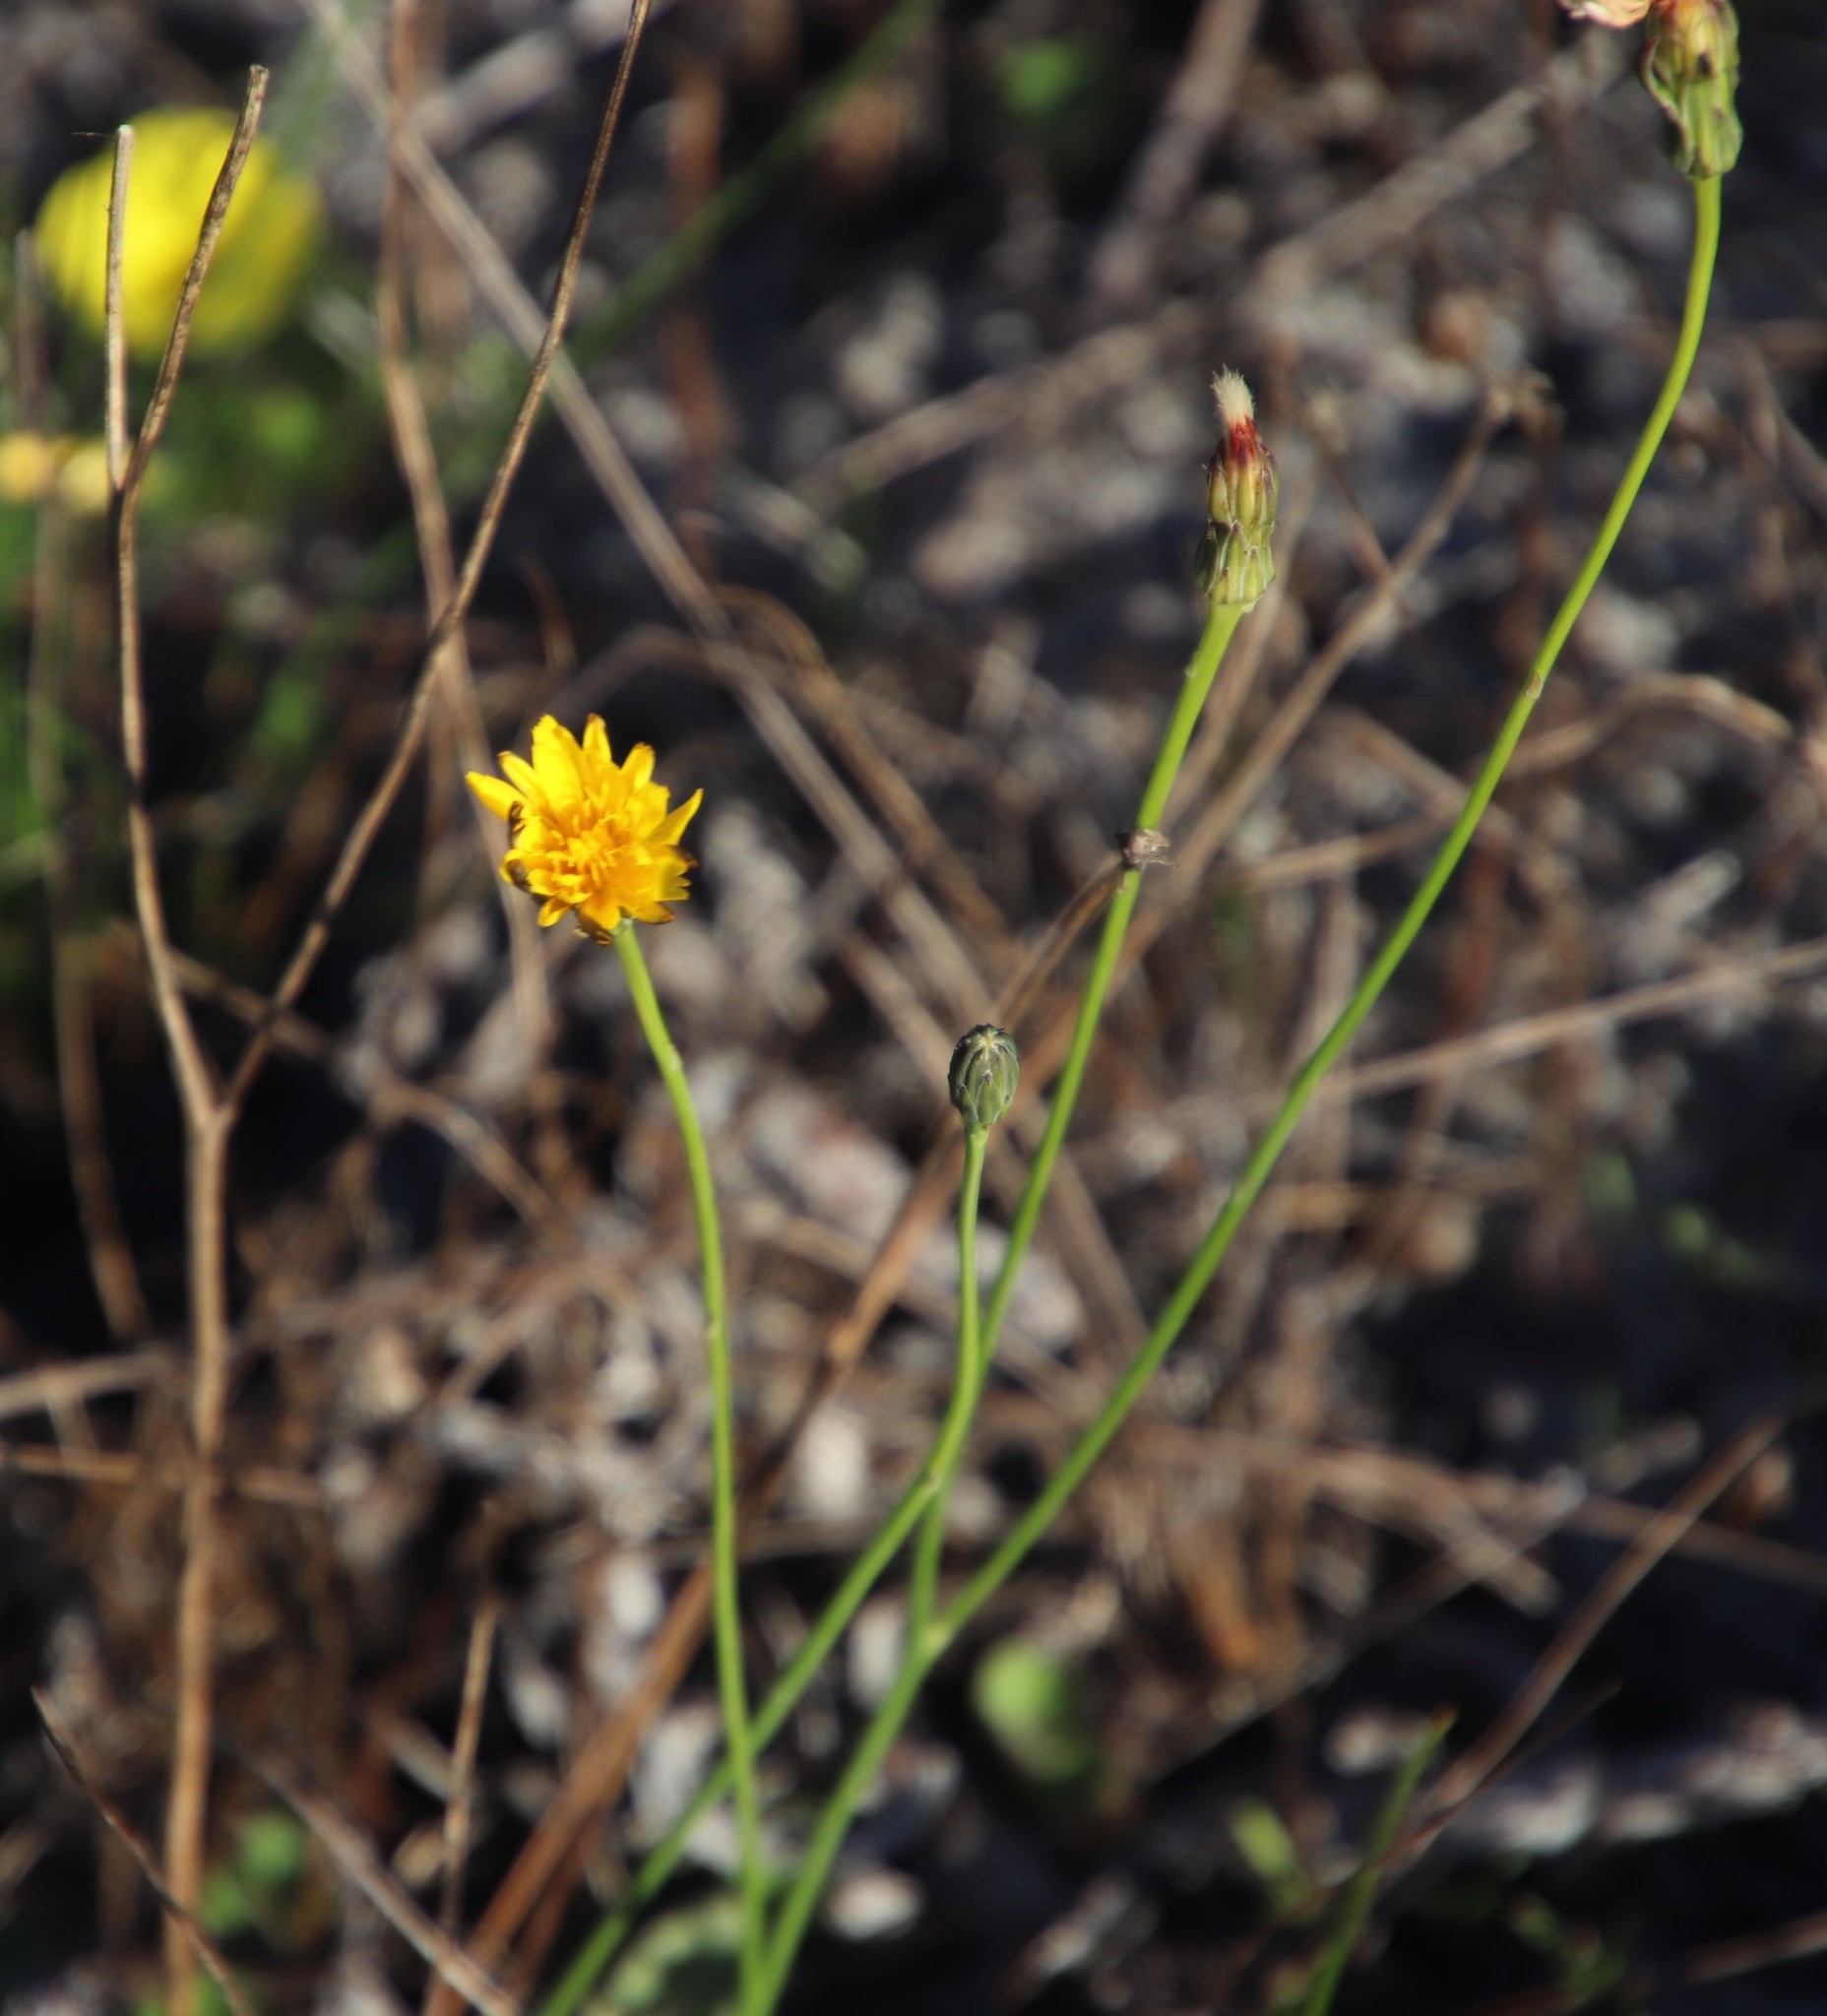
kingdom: Plantae
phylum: Tracheophyta
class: Magnoliopsida
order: Asterales
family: Asteraceae
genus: Hypochaeris
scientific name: Hypochaeris radicata
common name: Flatweed
